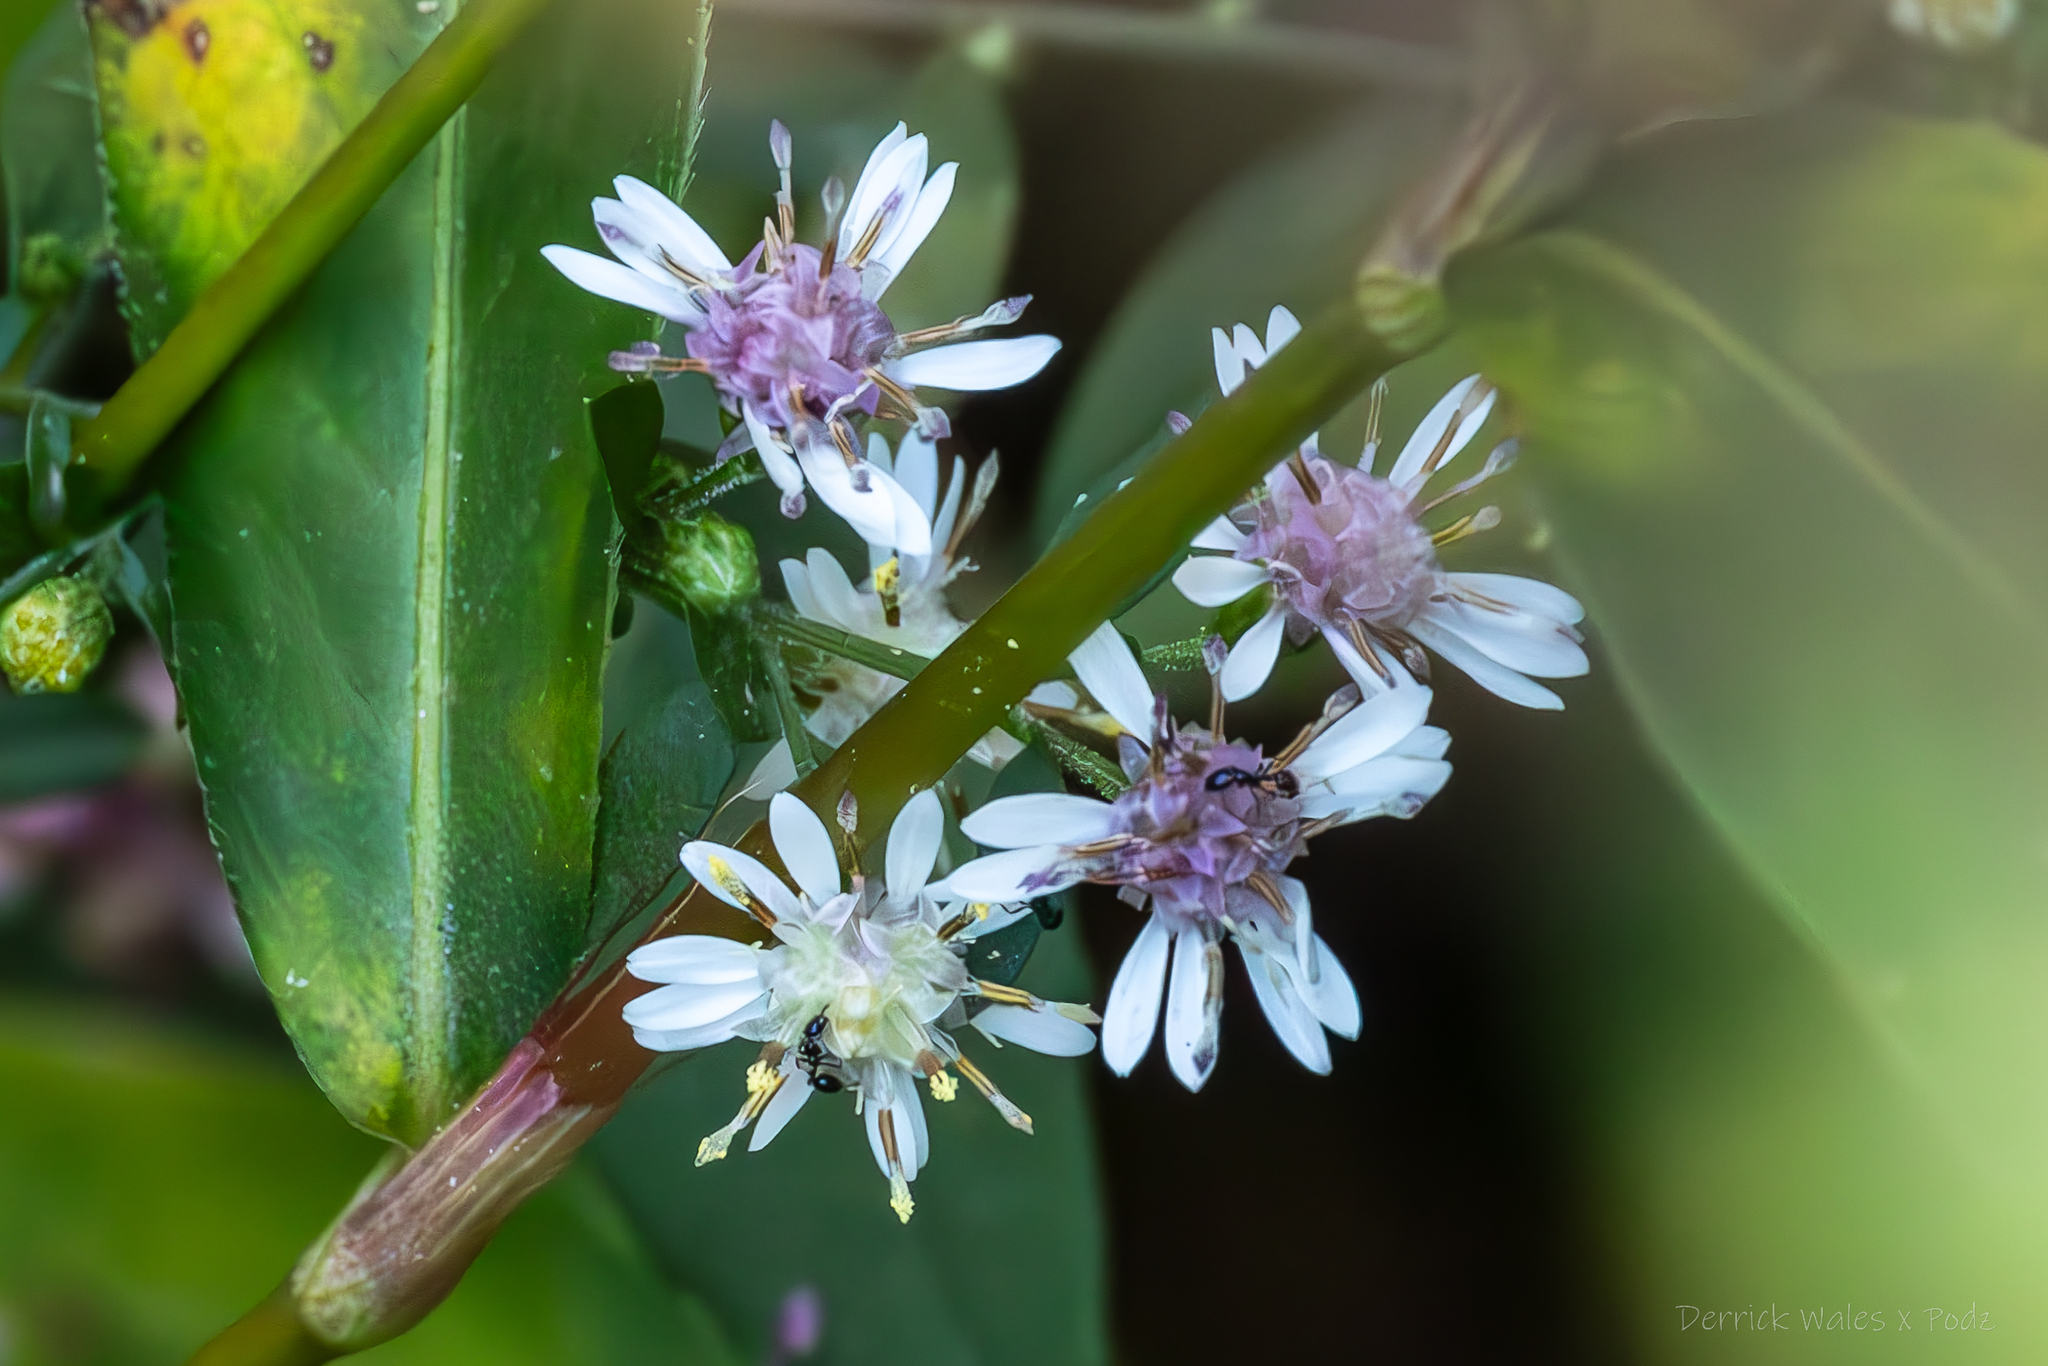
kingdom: Animalia
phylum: Arthropoda
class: Insecta
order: Hymenoptera
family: Formicidae
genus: Monomorium
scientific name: Monomorium
